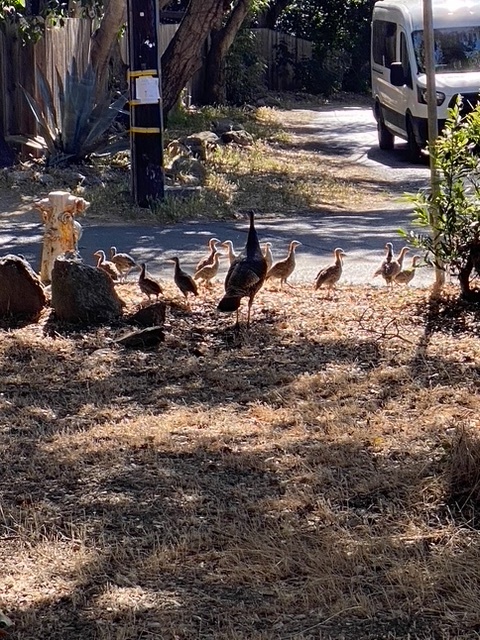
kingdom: Animalia
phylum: Chordata
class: Aves
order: Galliformes
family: Phasianidae
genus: Meleagris
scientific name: Meleagris gallopavo
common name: Wild turkey
